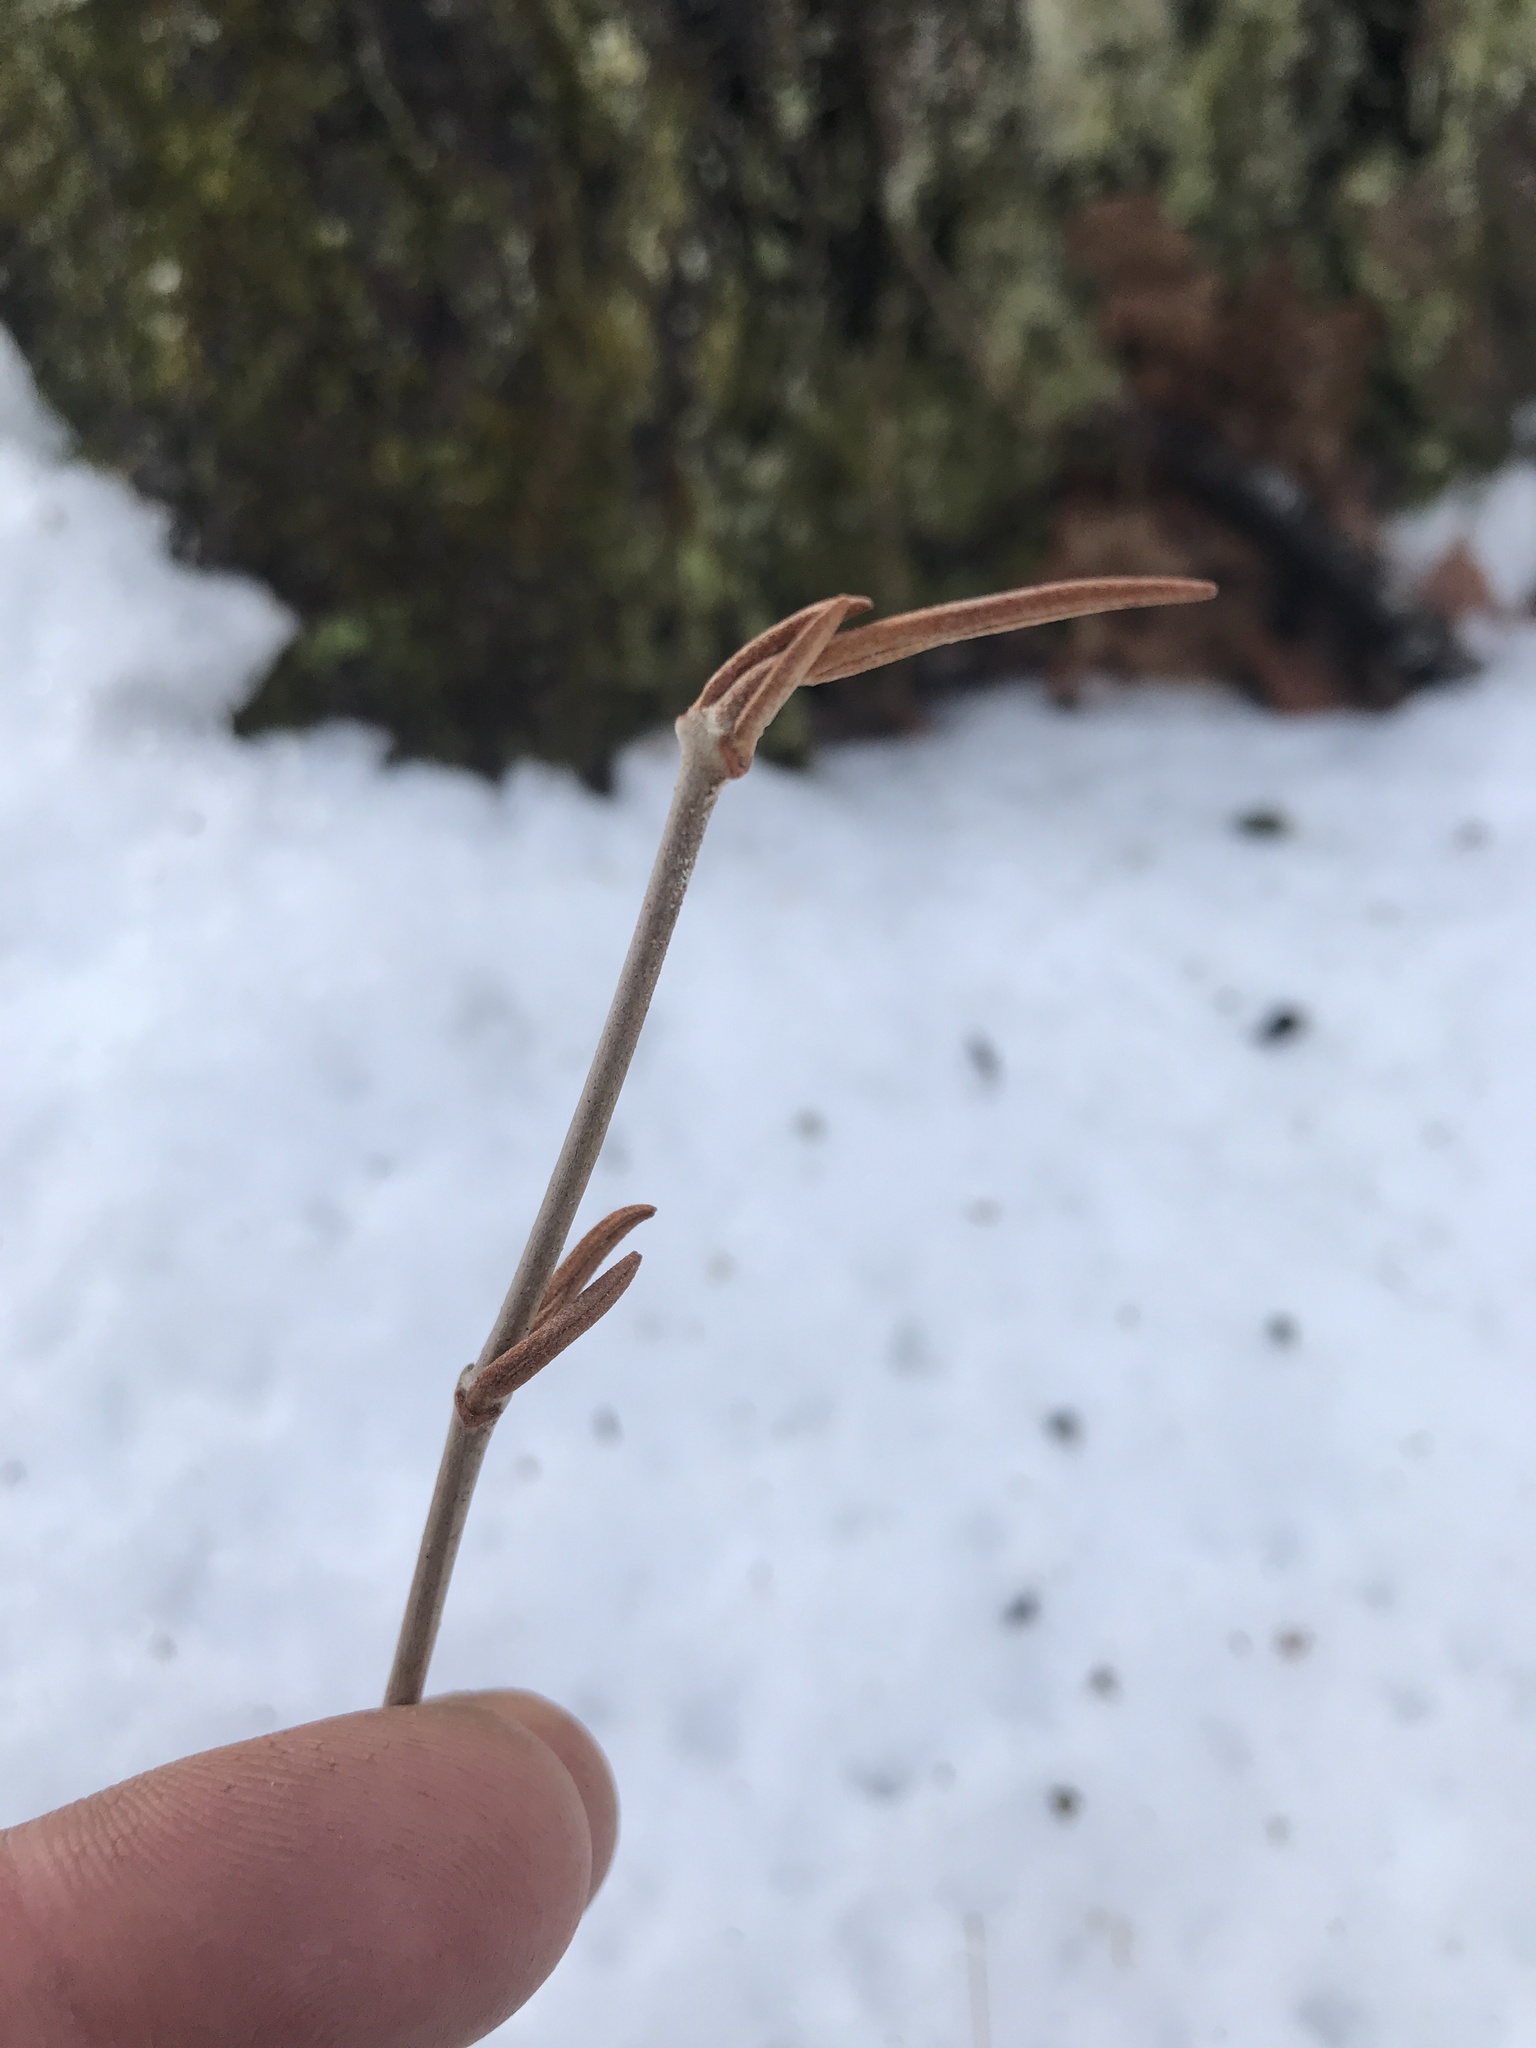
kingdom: Plantae
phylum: Tracheophyta
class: Magnoliopsida
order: Dipsacales
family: Viburnaceae
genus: Viburnum
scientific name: Viburnum cassinoides
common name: Swamp haw
